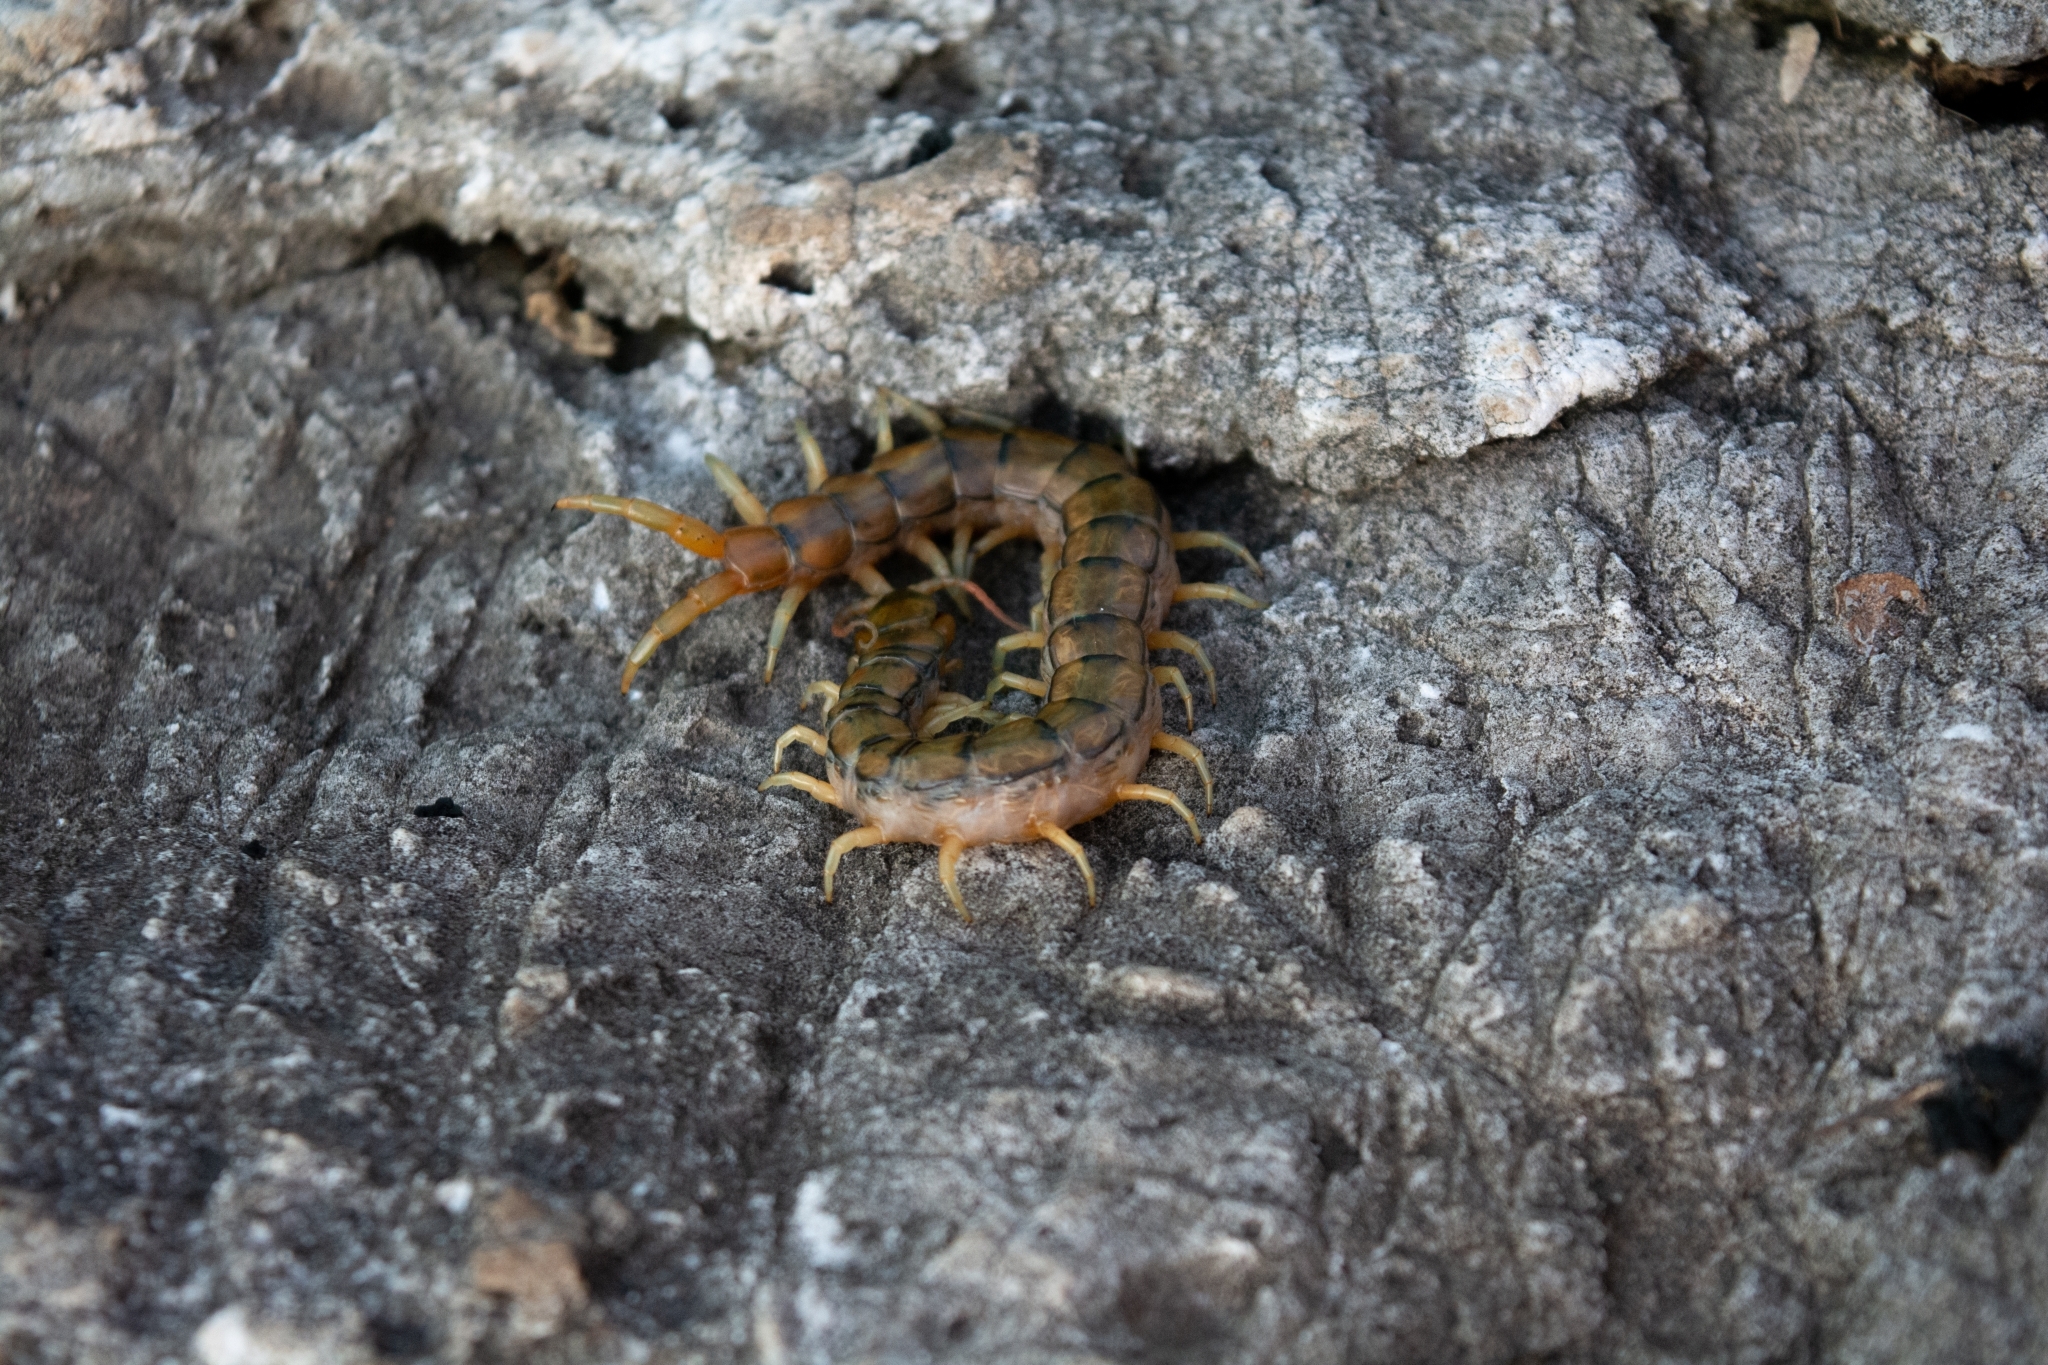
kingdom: Animalia
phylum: Arthropoda
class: Chilopoda
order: Scolopendromorpha
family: Scolopendridae
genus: Scolopendra
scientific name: Scolopendra cingulata
